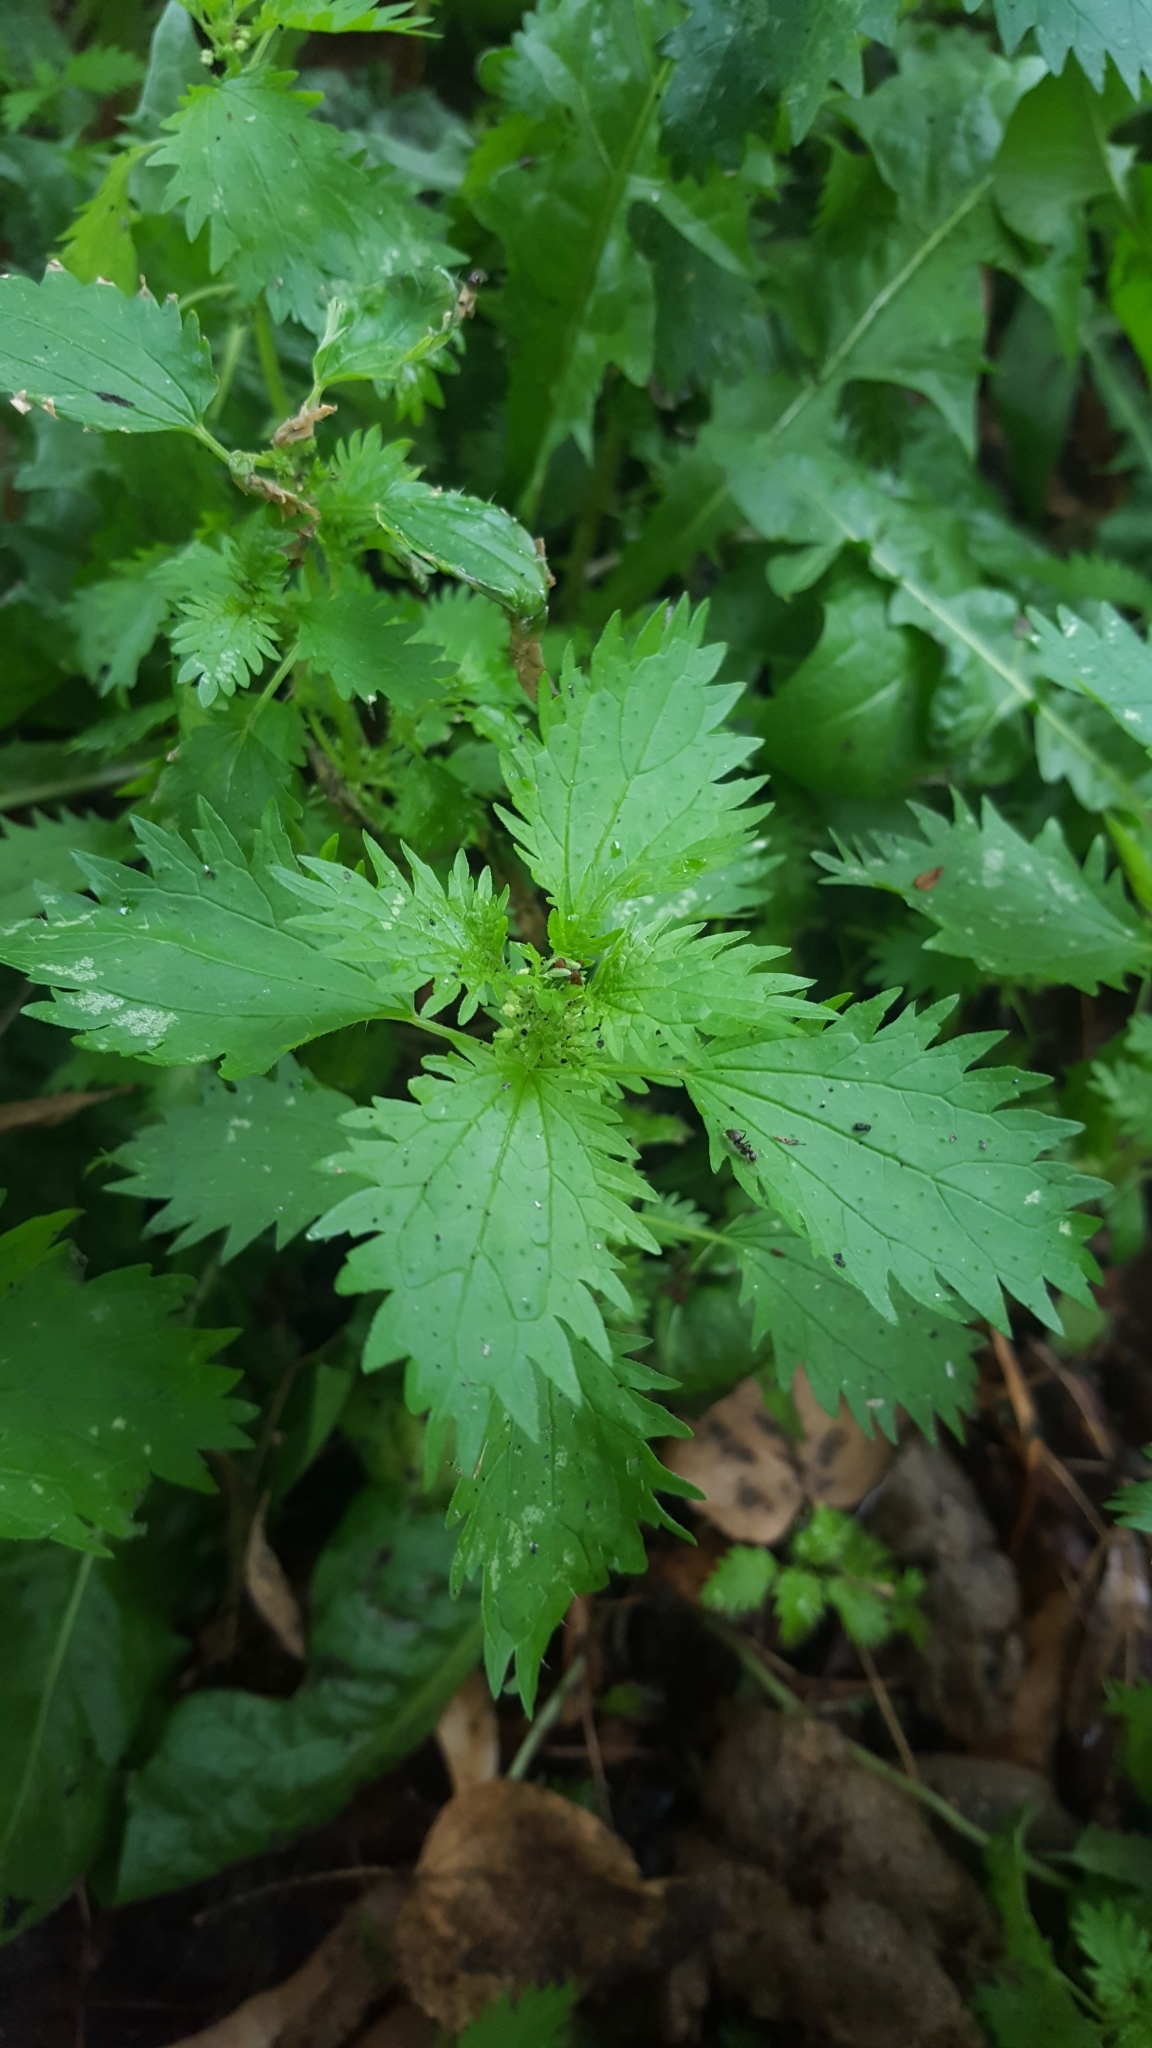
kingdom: Plantae
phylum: Tracheophyta
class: Magnoliopsida
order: Rosales
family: Urticaceae
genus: Urtica
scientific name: Urtica urens
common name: Dwarf nettle
